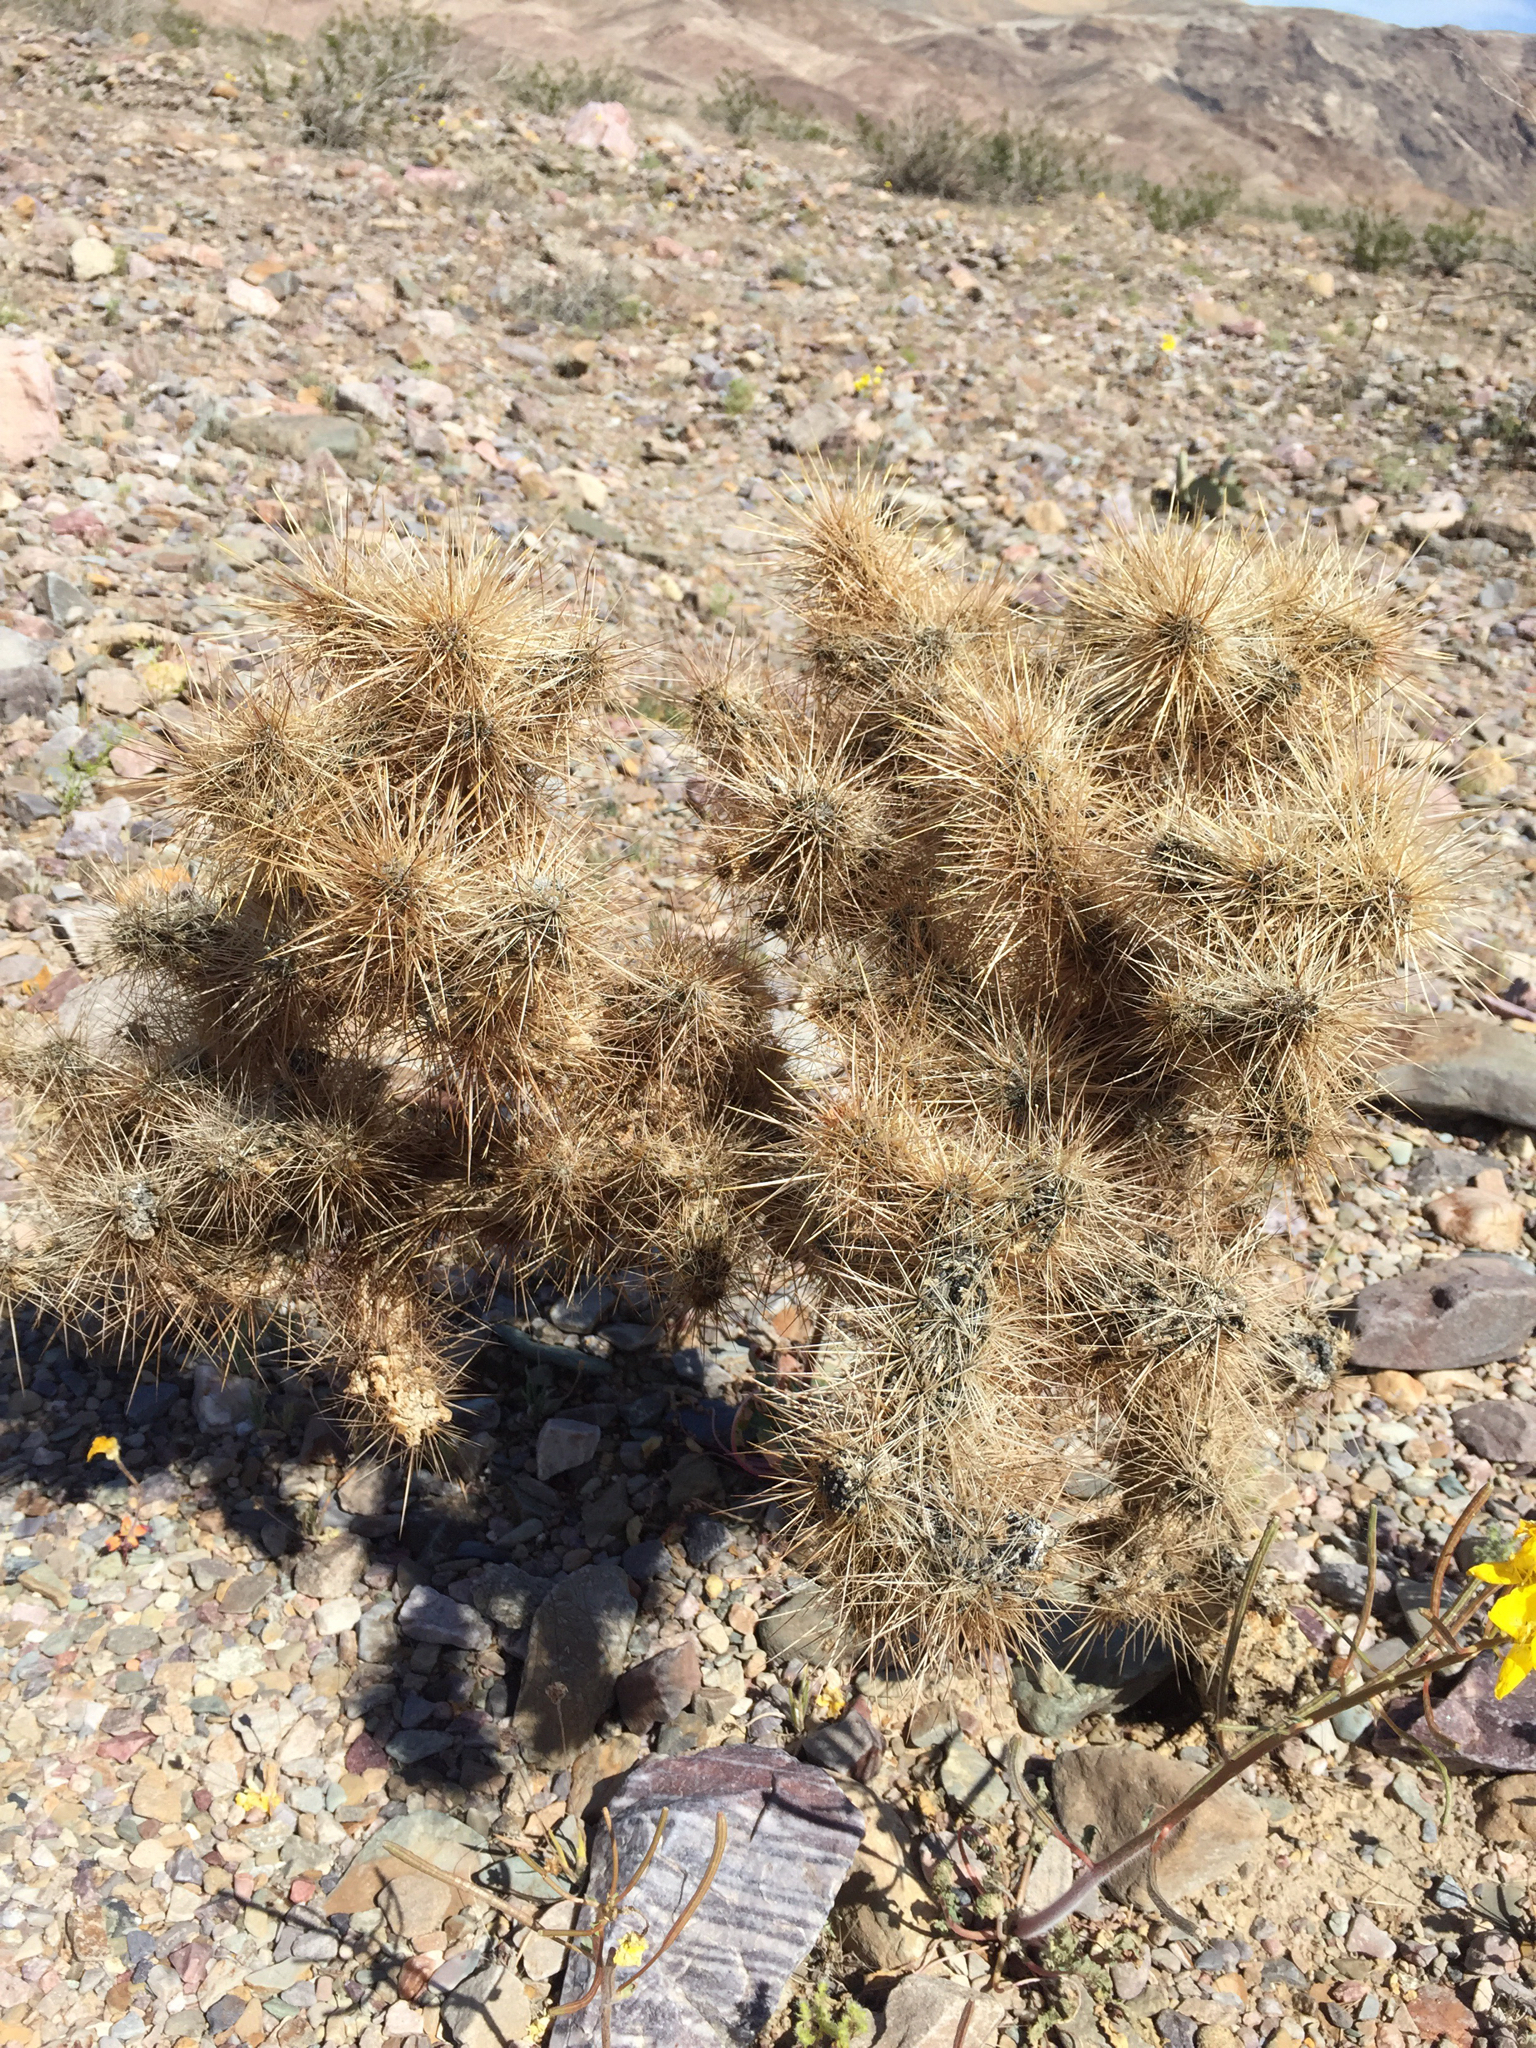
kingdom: Plantae
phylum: Tracheophyta
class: Magnoliopsida
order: Caryophyllales
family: Cactaceae
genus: Cylindropuntia
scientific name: Cylindropuntia echinocarpa
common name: Ground cholla
